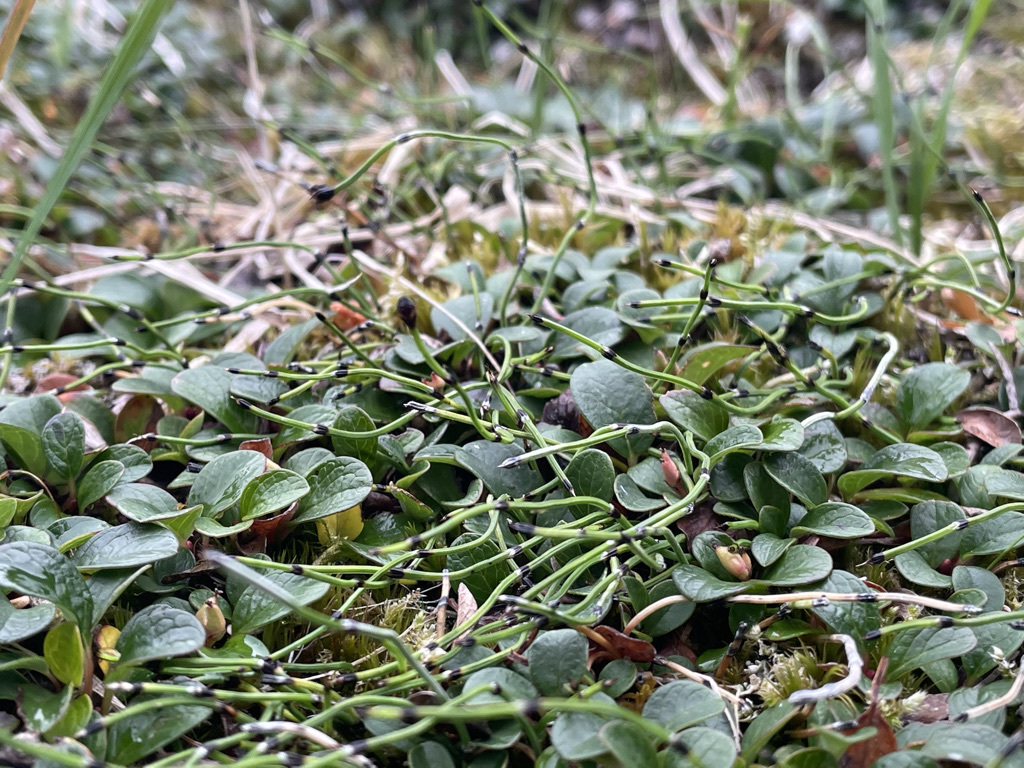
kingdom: Plantae
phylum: Tracheophyta
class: Polypodiopsida
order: Equisetales
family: Equisetaceae
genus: Equisetum
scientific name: Equisetum scirpoides
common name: Delicate horsetail
